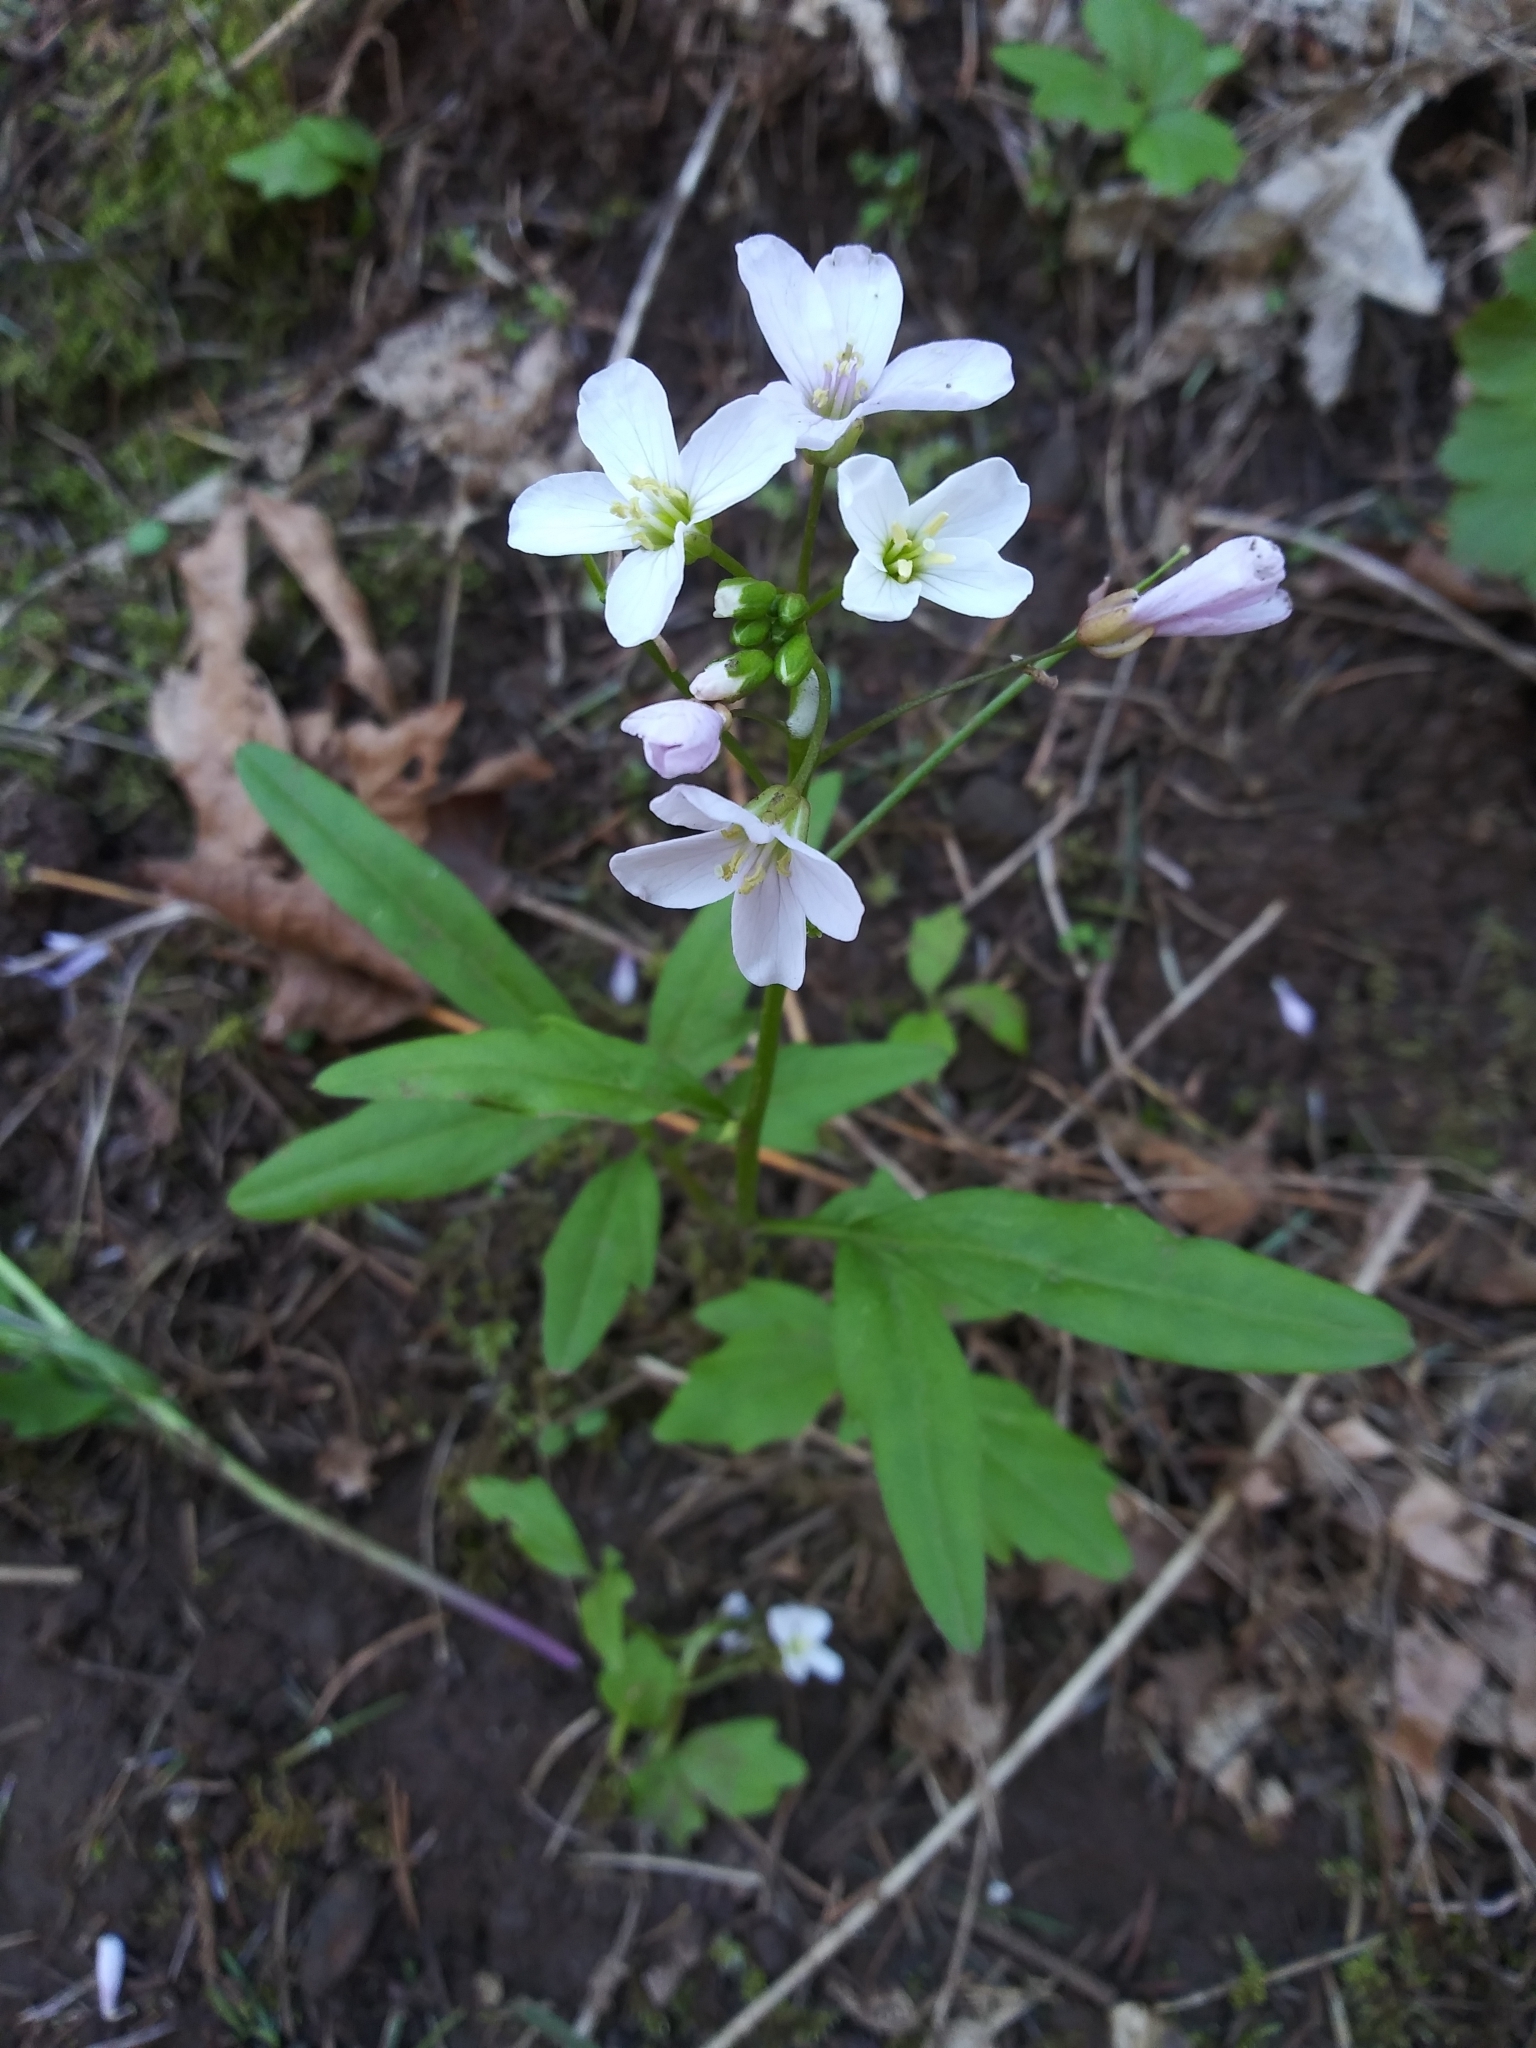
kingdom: Plantae
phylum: Tracheophyta
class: Magnoliopsida
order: Brassicales
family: Brassicaceae
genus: Cardamine
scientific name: Cardamine nuttallii
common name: Nuttall's toothwort
